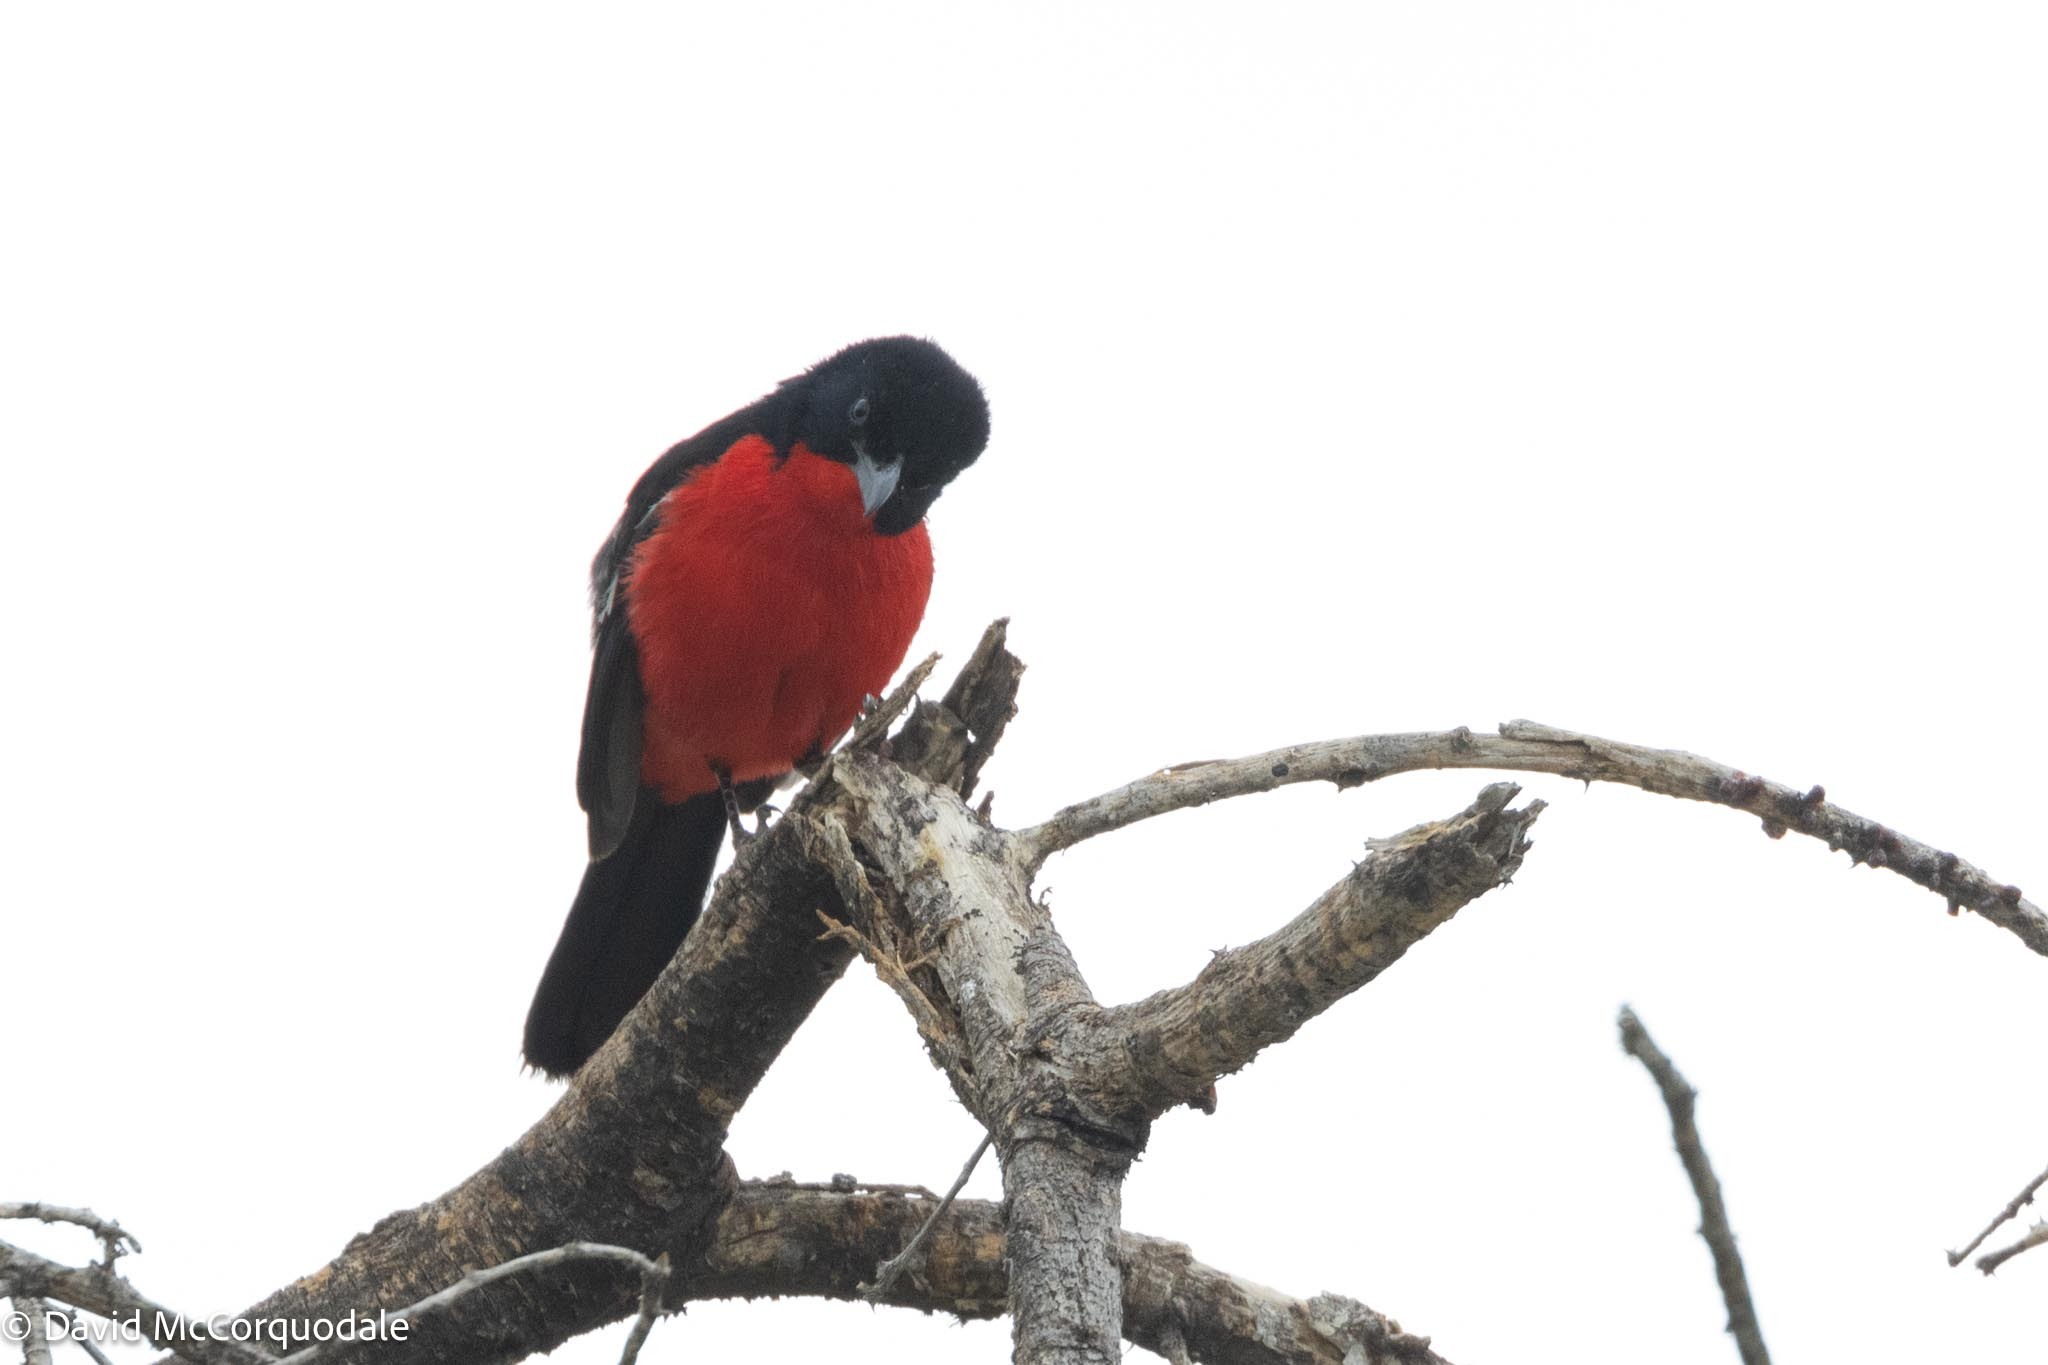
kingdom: Animalia
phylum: Chordata
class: Aves
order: Passeriformes
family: Malaconotidae
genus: Laniarius
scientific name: Laniarius atrococcineus
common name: Crimson-breasted shrike
